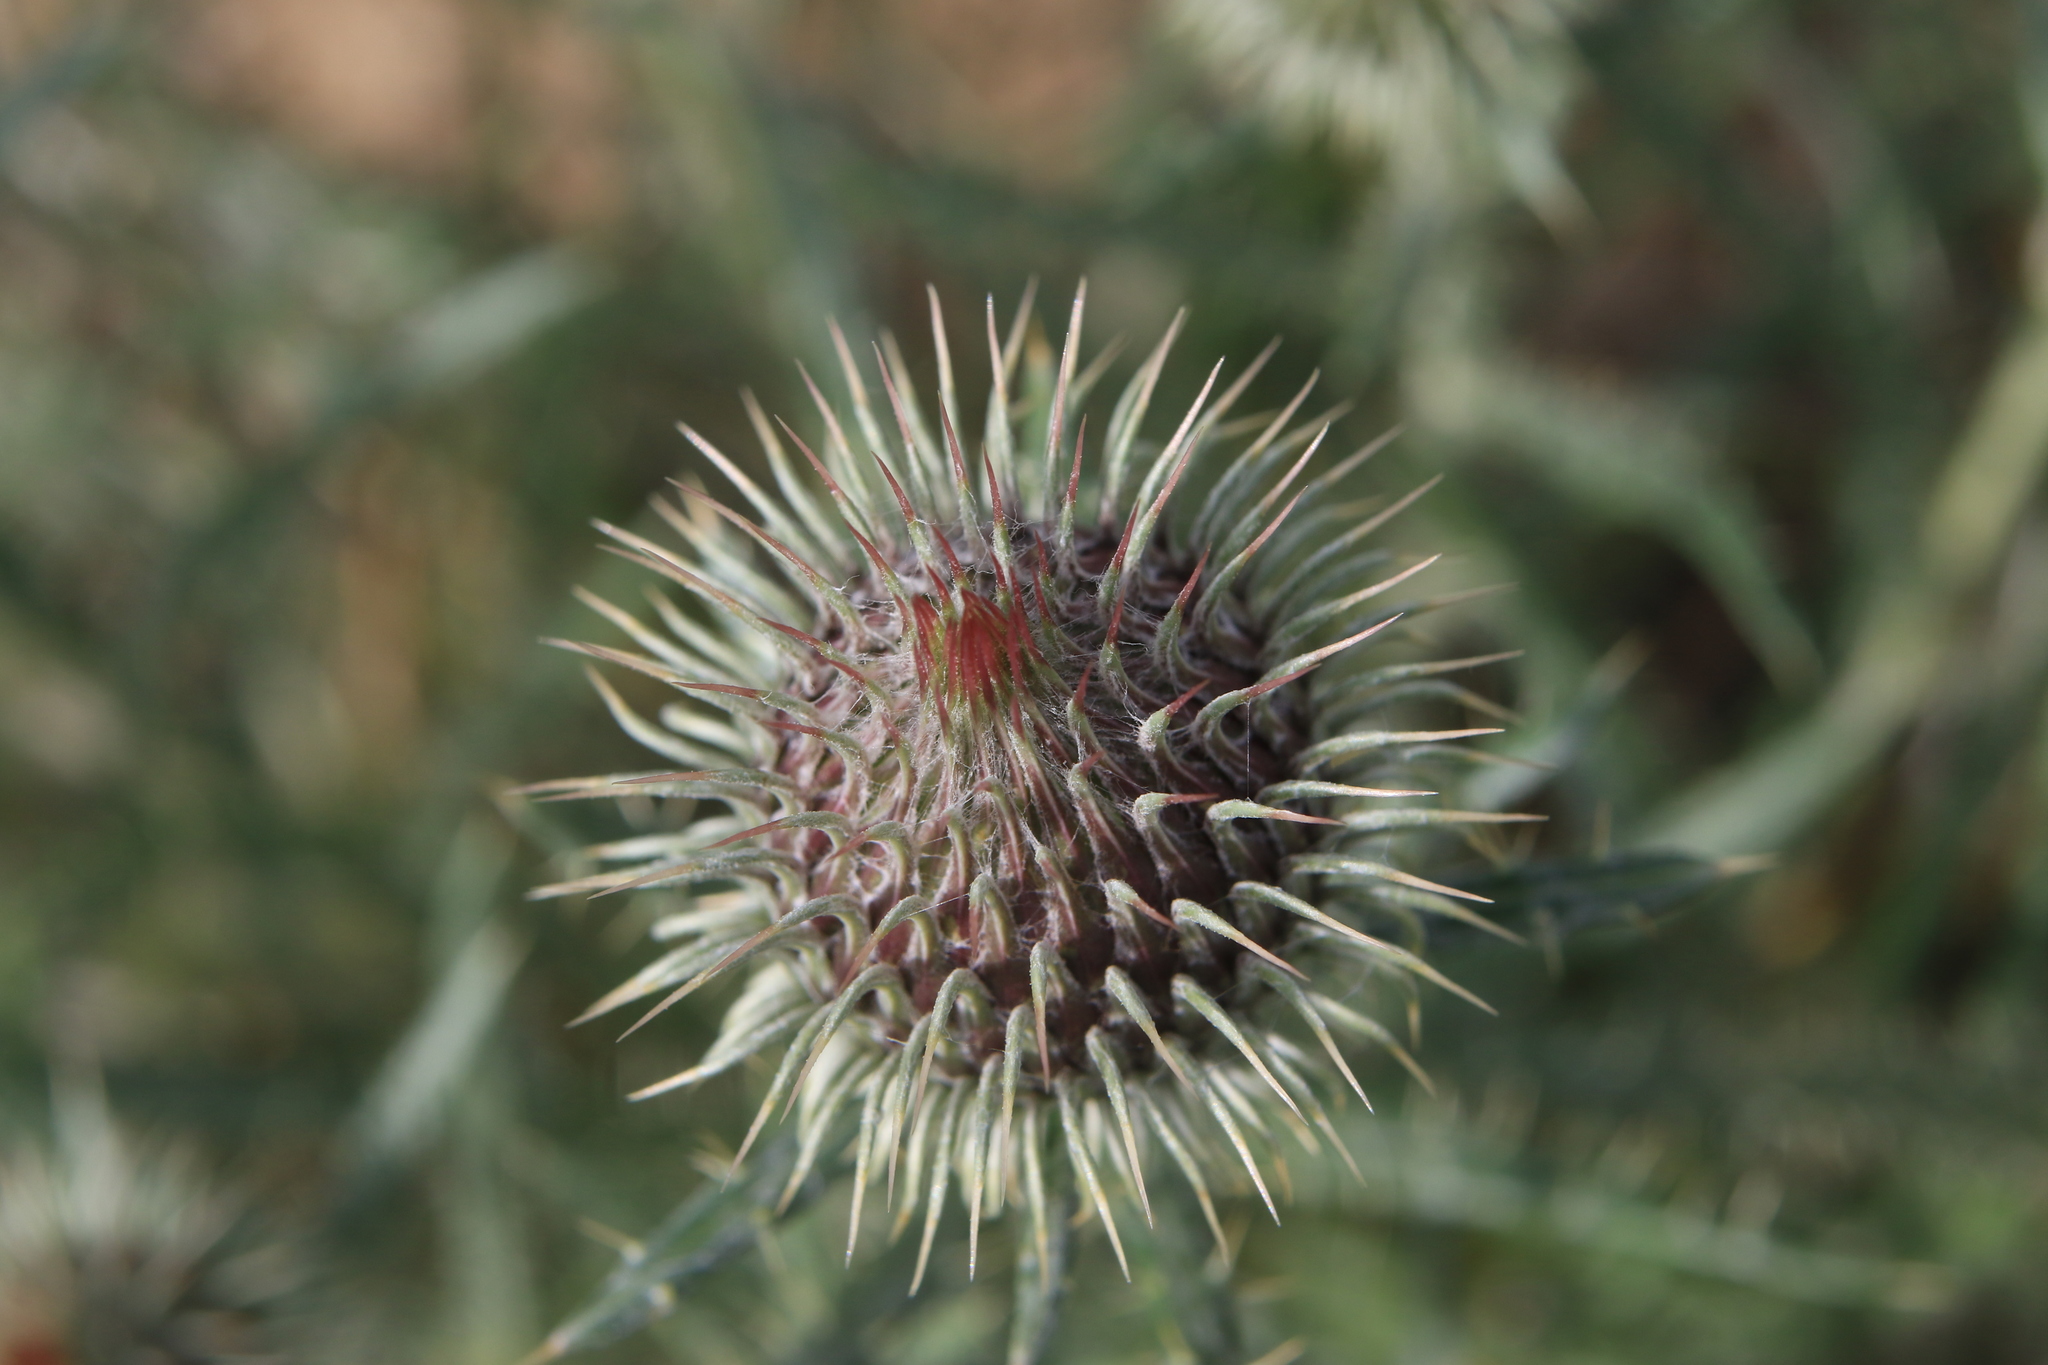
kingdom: Plantae
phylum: Tracheophyta
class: Magnoliopsida
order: Asterales
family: Asteraceae
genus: Ancathia
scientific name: Ancathia igniaria
